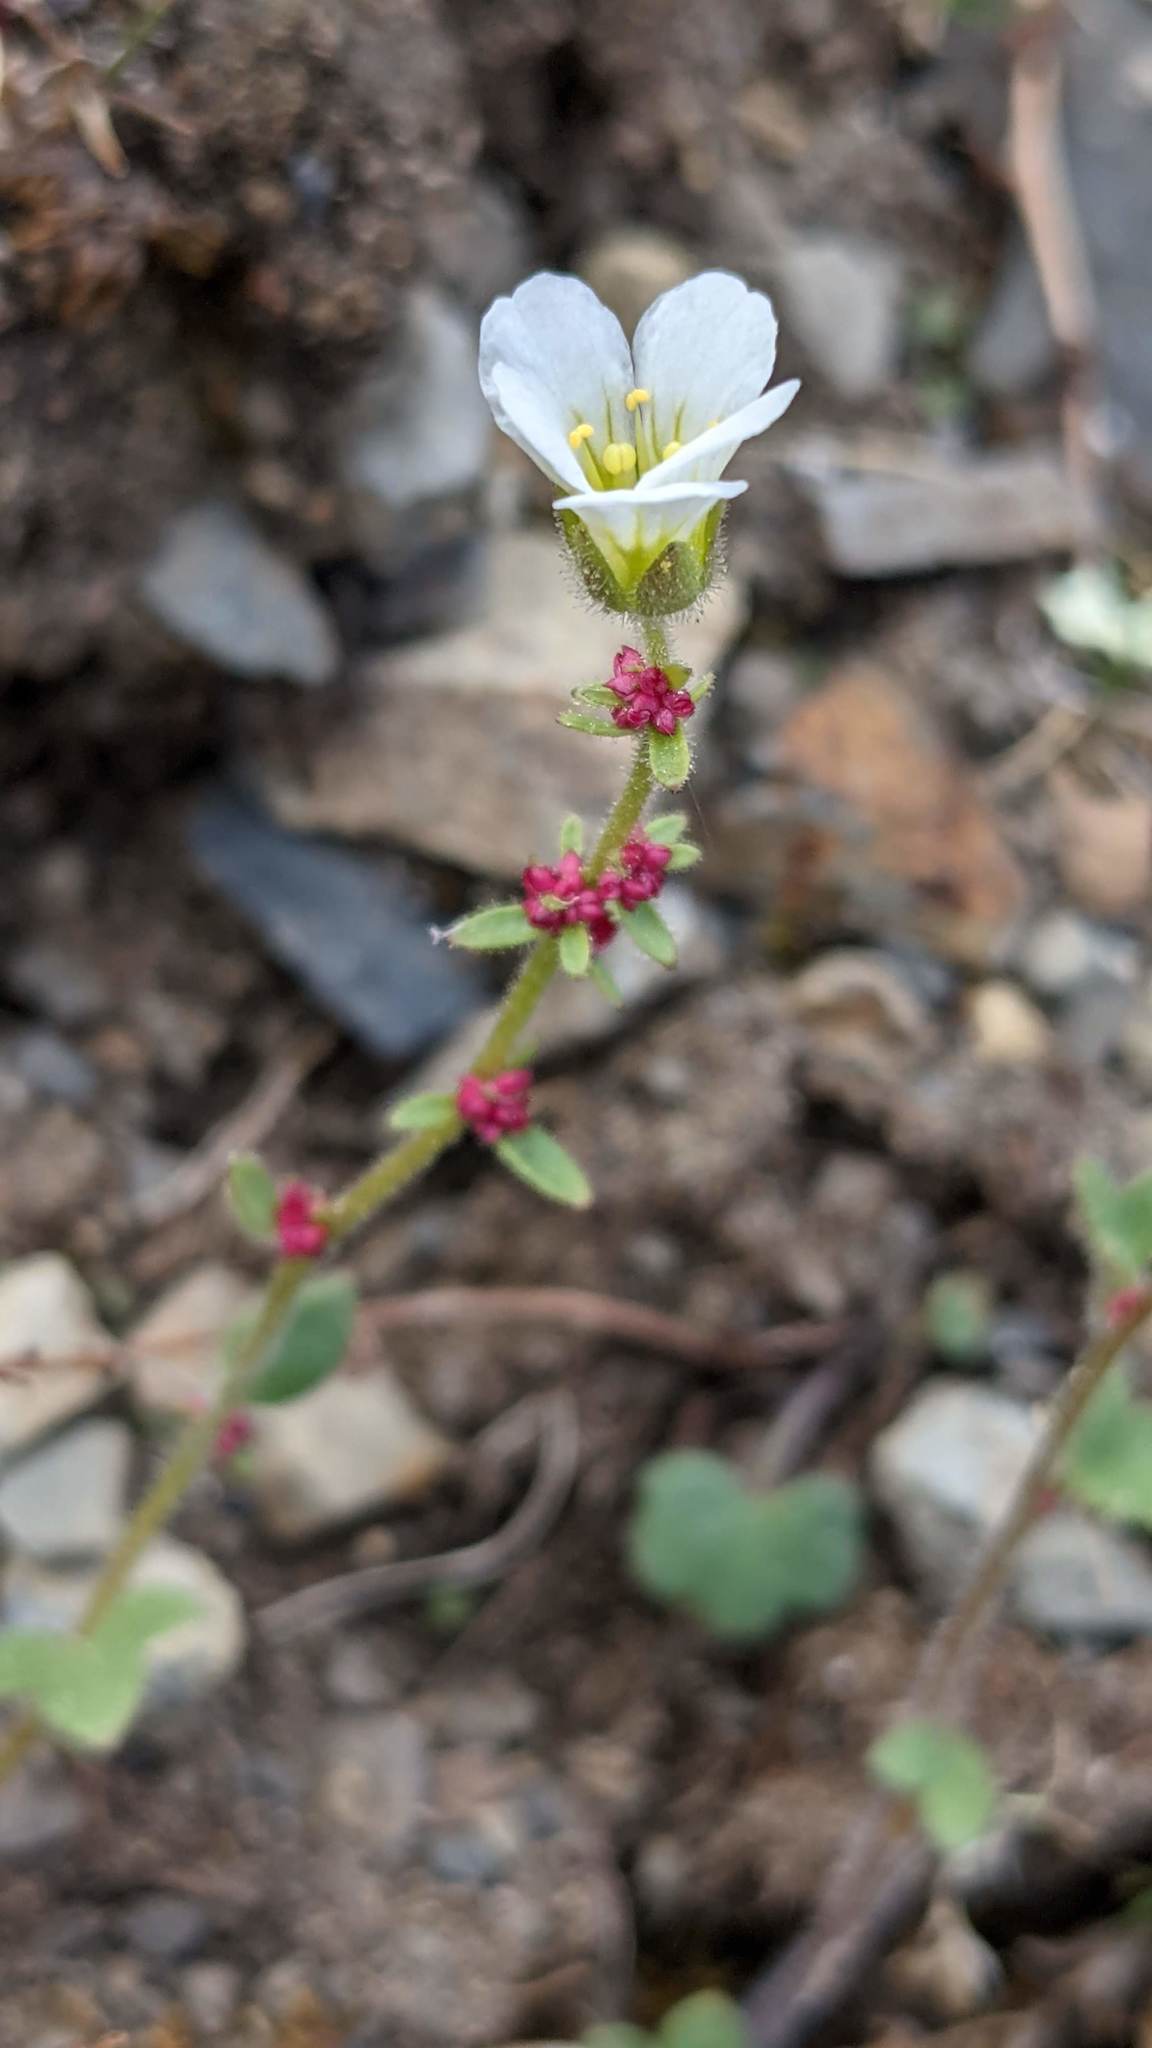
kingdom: Plantae
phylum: Tracheophyta
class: Magnoliopsida
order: Saxifragales
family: Saxifragaceae
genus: Saxifraga
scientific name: Saxifraga cernua
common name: Drooping saxifrage
